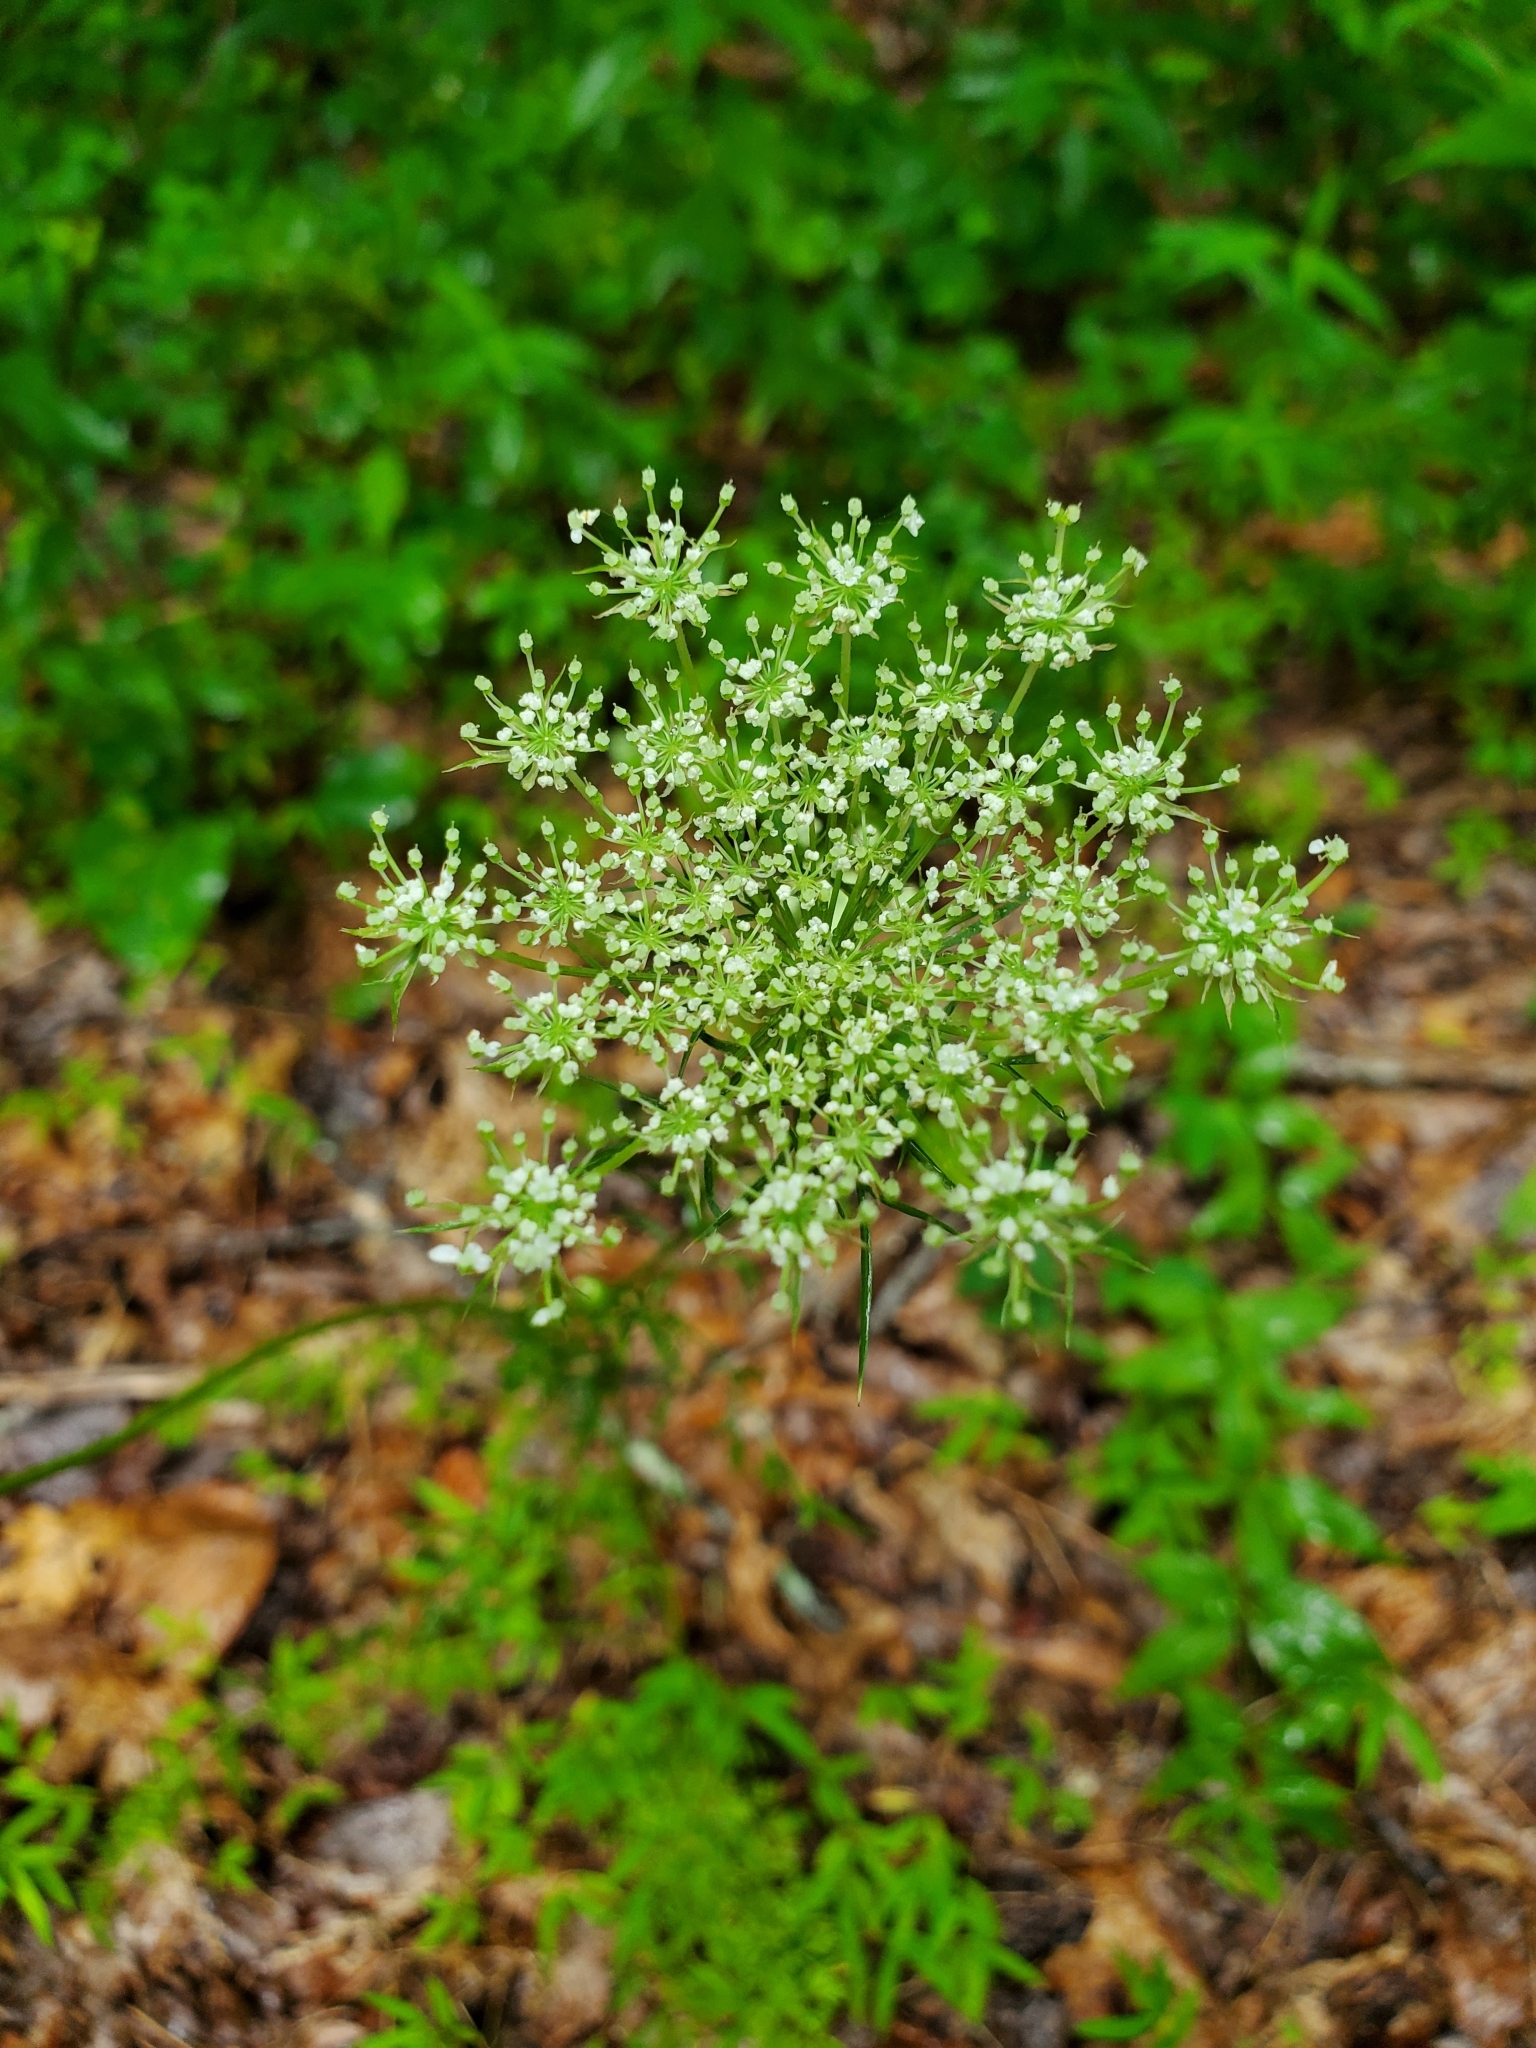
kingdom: Plantae
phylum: Tracheophyta
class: Magnoliopsida
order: Apiales
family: Apiaceae
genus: Daucus
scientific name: Daucus carota
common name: Wild carrot
